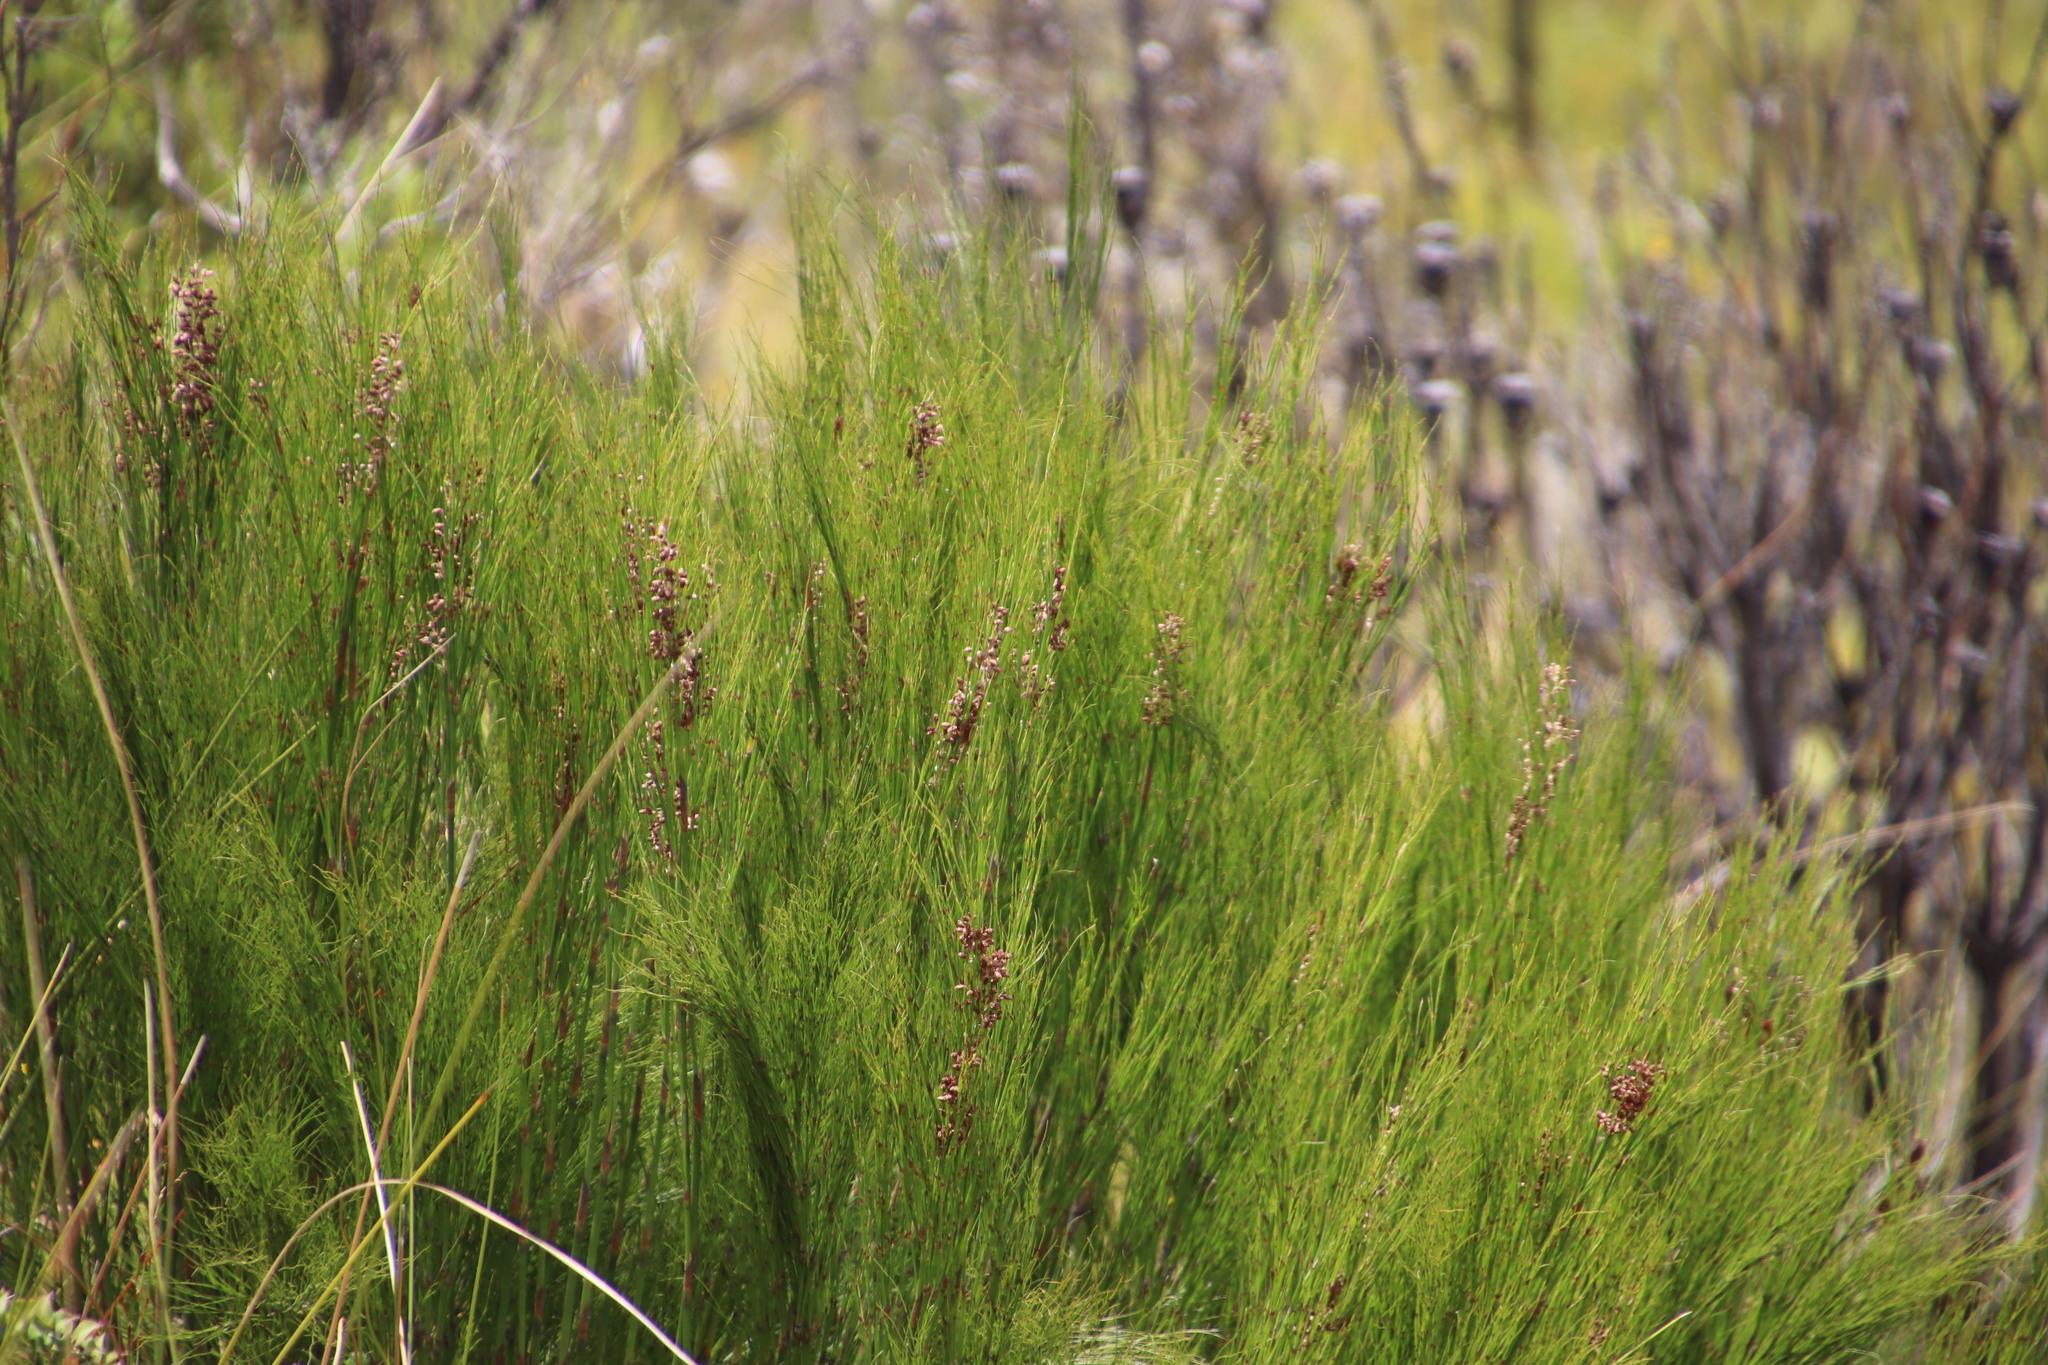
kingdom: Plantae
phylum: Tracheophyta
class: Liliopsida
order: Poales
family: Restionaceae
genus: Cannomois
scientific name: Cannomois virgata
